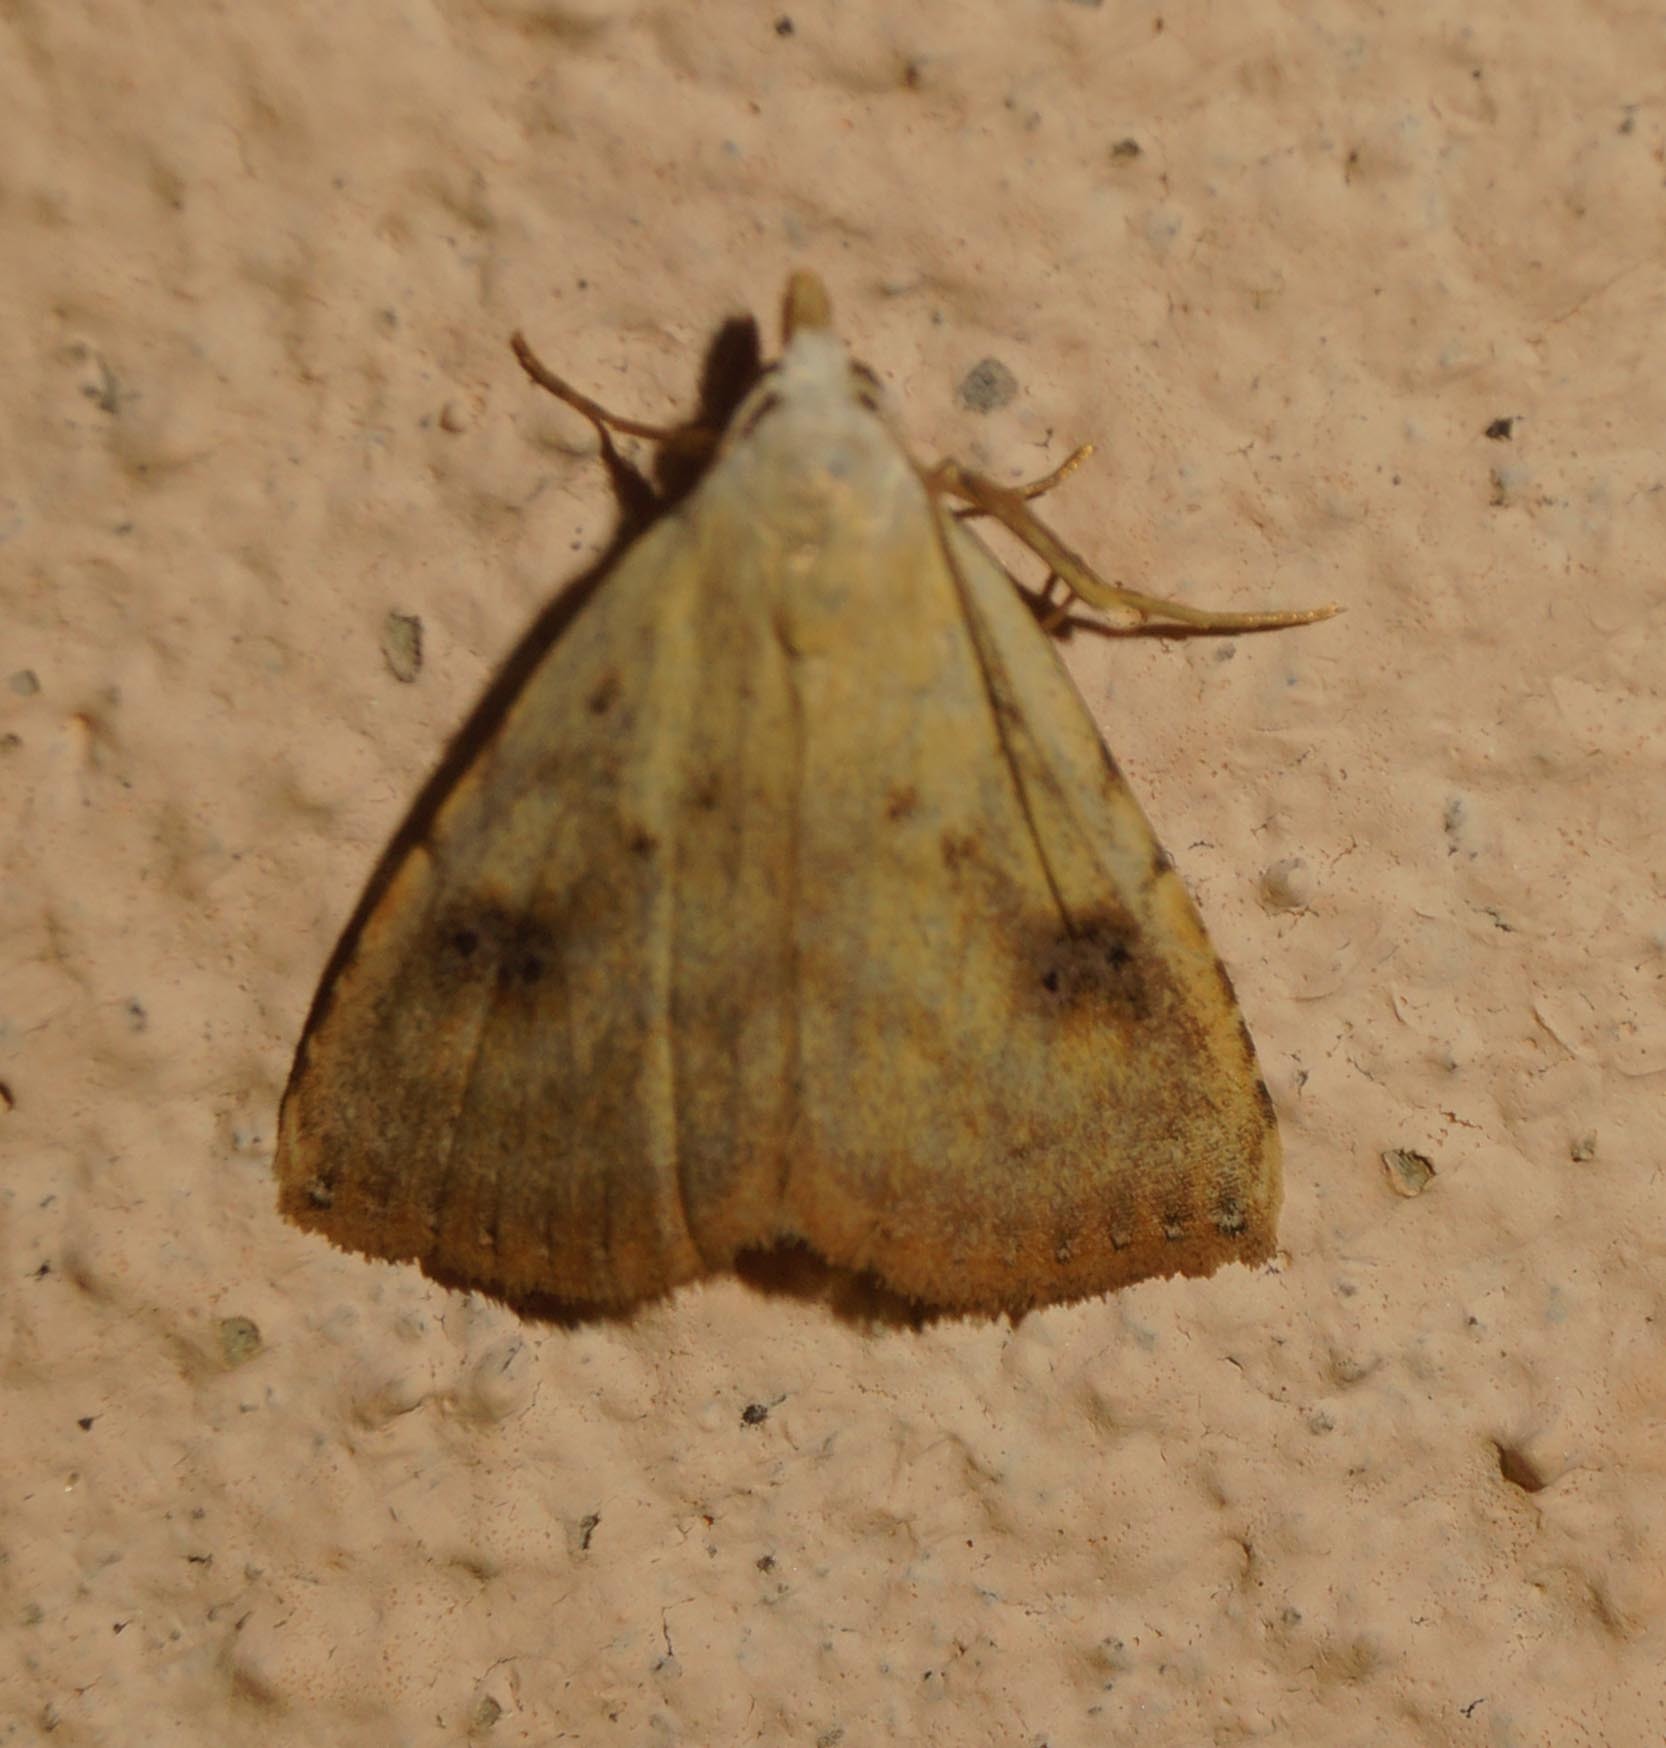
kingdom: Animalia
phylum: Arthropoda
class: Insecta
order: Lepidoptera
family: Erebidae
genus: Rivula
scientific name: Rivula sericealis
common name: Straw dot
